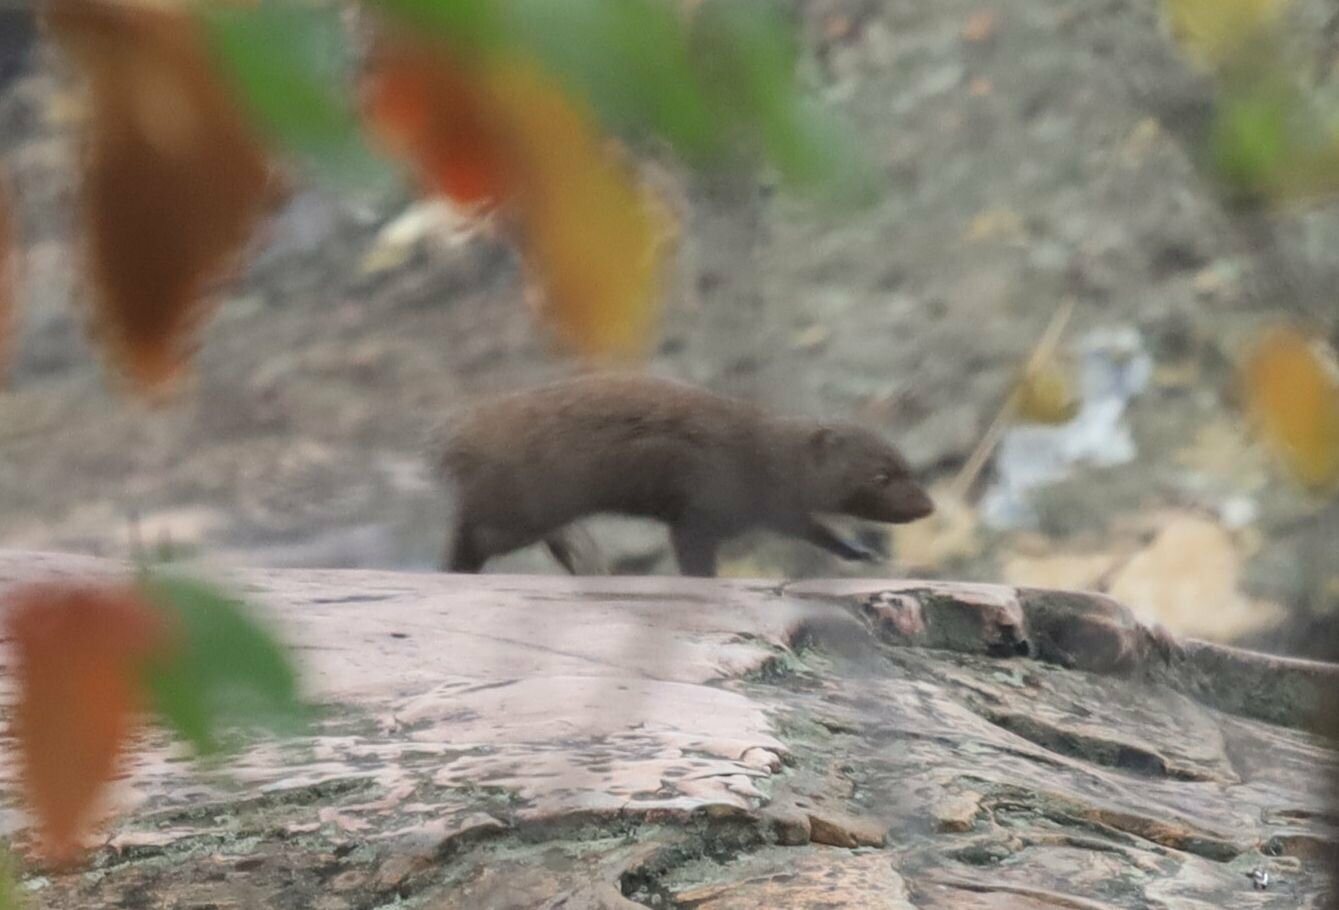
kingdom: Animalia
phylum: Chordata
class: Mammalia
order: Carnivora
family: Herpestidae
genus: Helogale
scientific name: Helogale parvula
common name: Common dwarf mongoose
